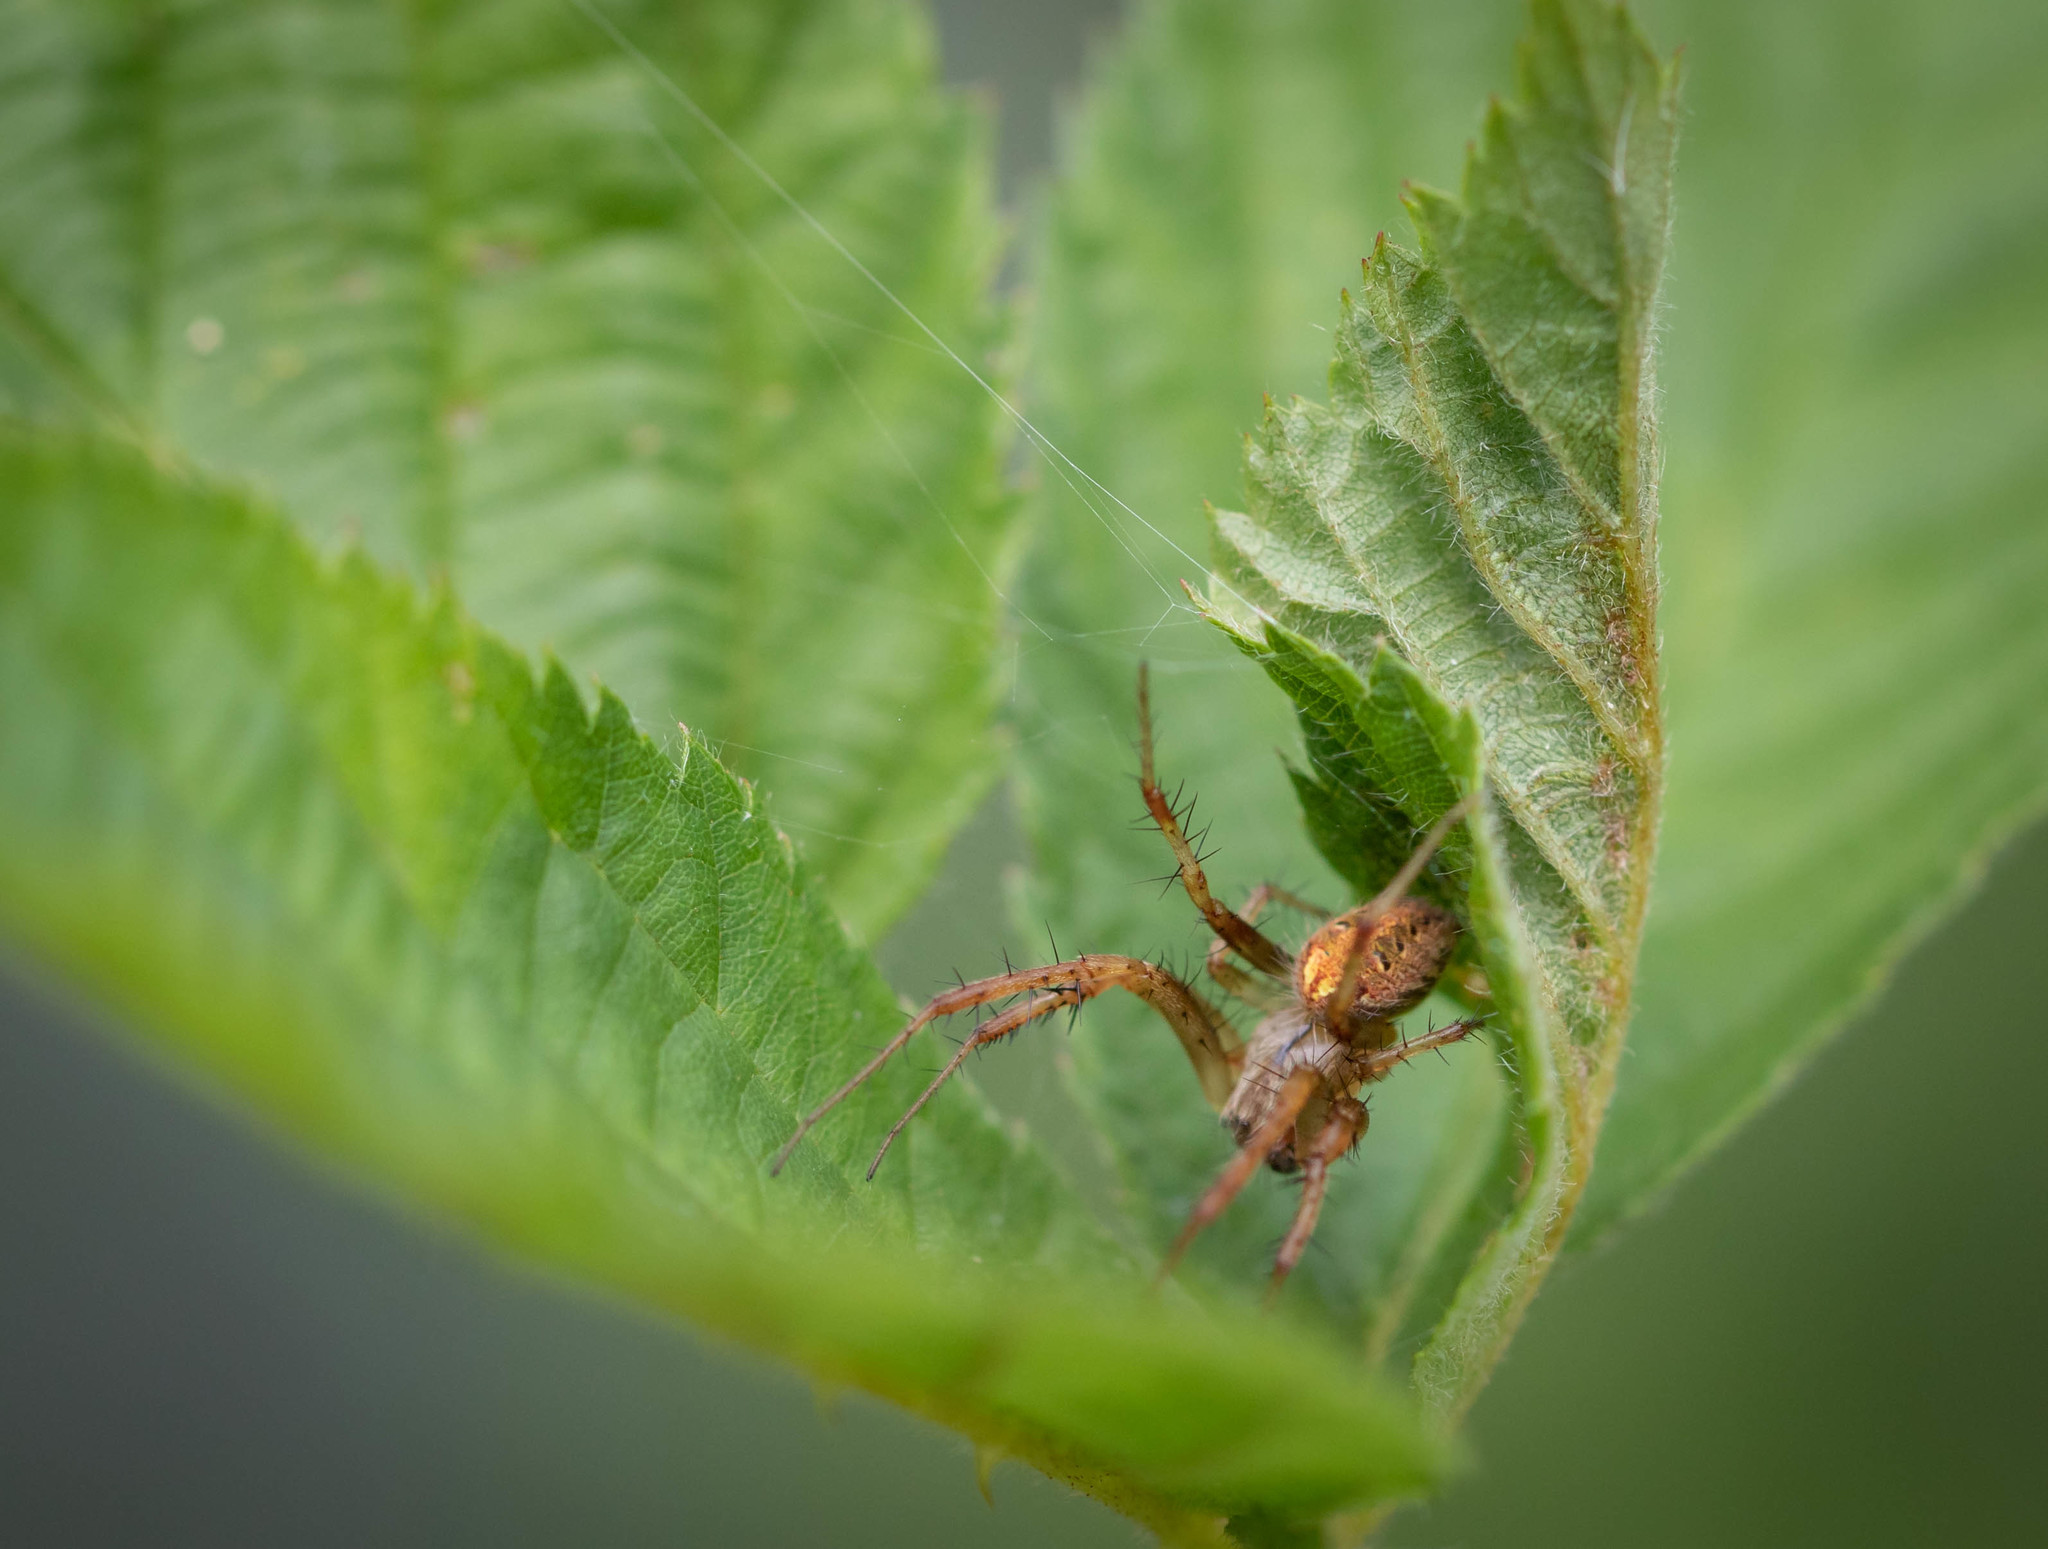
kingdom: Animalia
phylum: Arthropoda
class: Arachnida
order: Araneae
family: Araneidae
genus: Neoscona
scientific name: Neoscona arabesca
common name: Orb weavers
